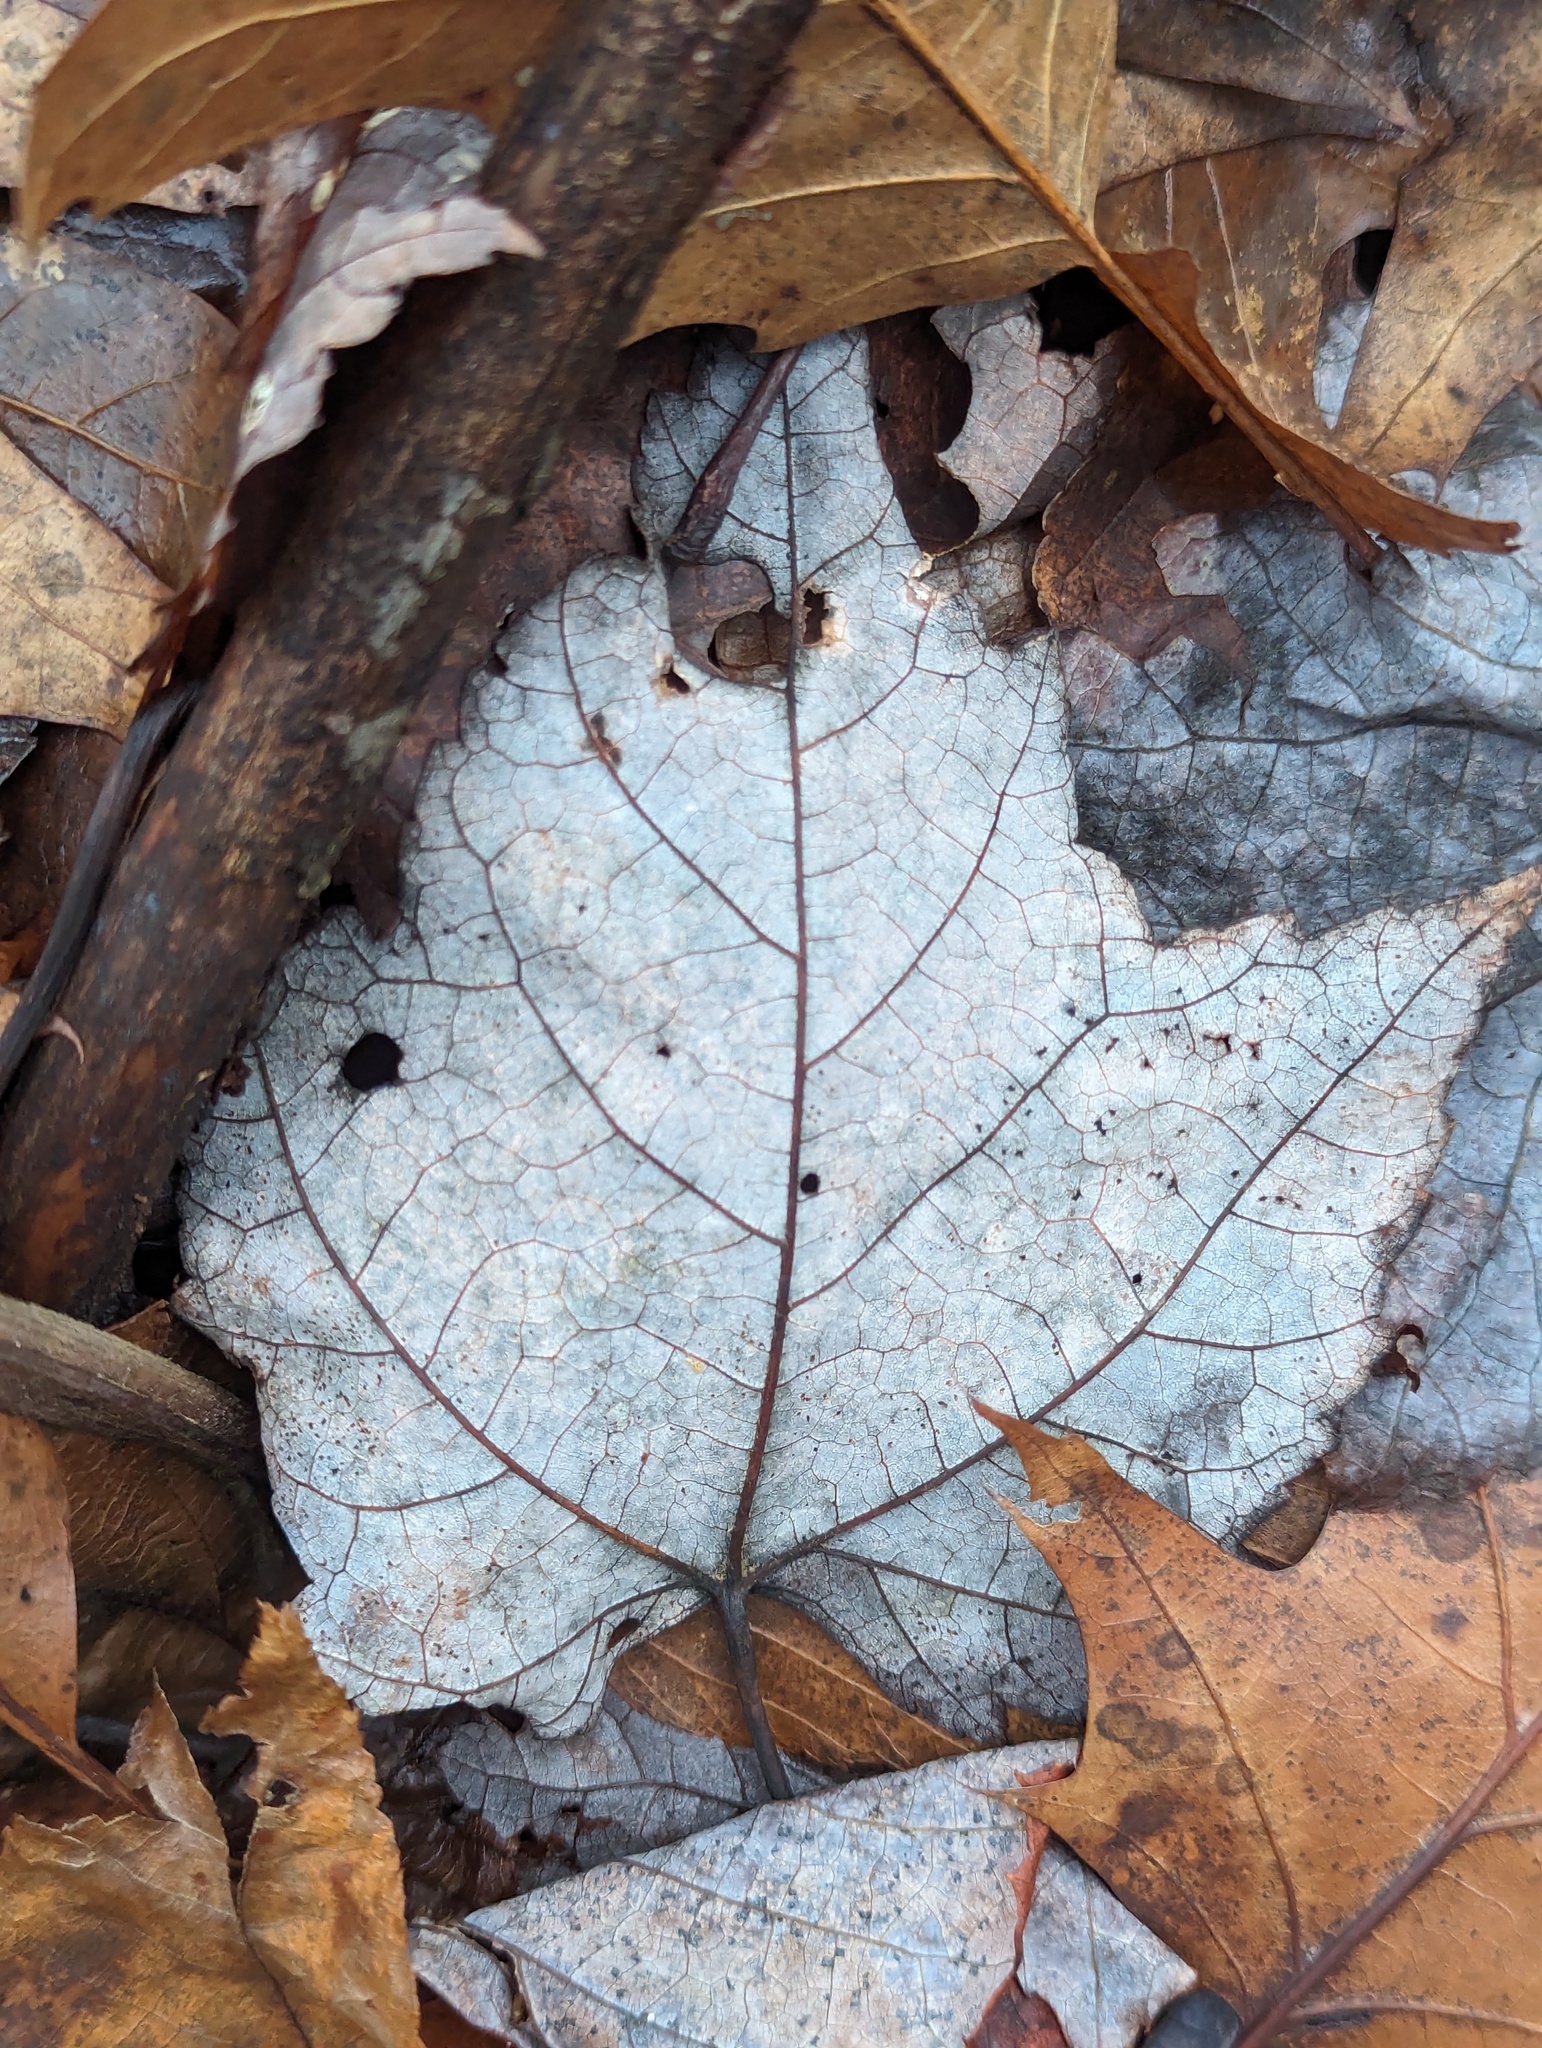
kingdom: Plantae
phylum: Tracheophyta
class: Magnoliopsida
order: Sapindales
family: Sapindaceae
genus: Acer
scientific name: Acer rubrum
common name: Red maple
